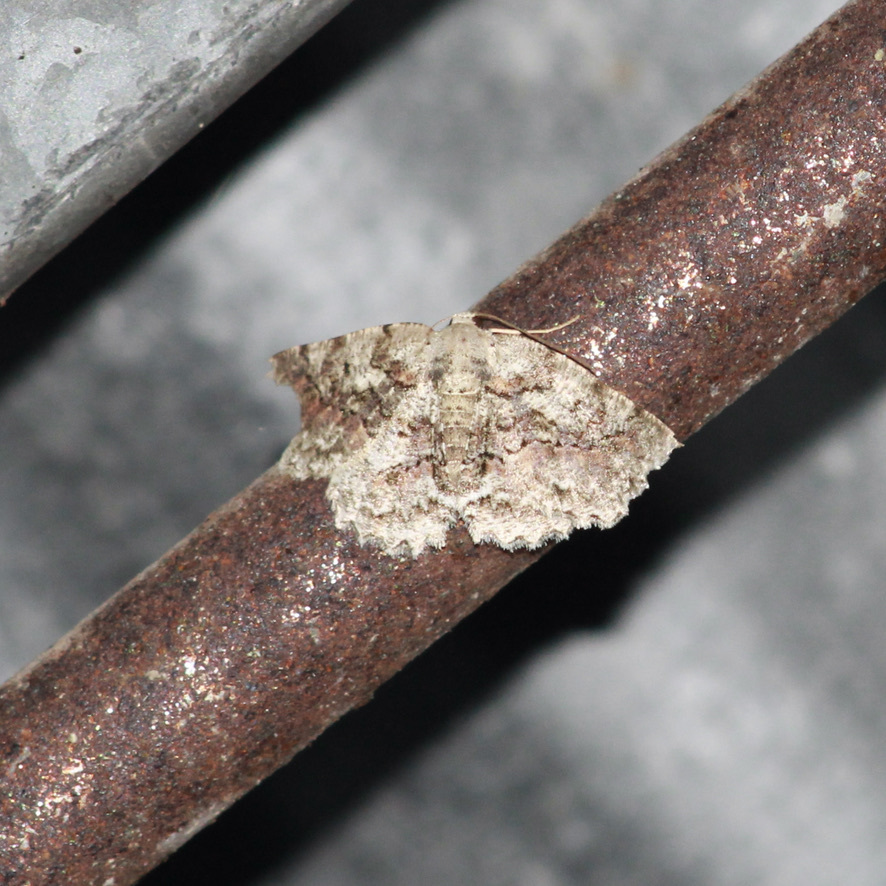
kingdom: Animalia
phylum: Arthropoda
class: Insecta
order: Lepidoptera
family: Geometridae
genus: Bryoptera
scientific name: Bryoptera hypomelas
